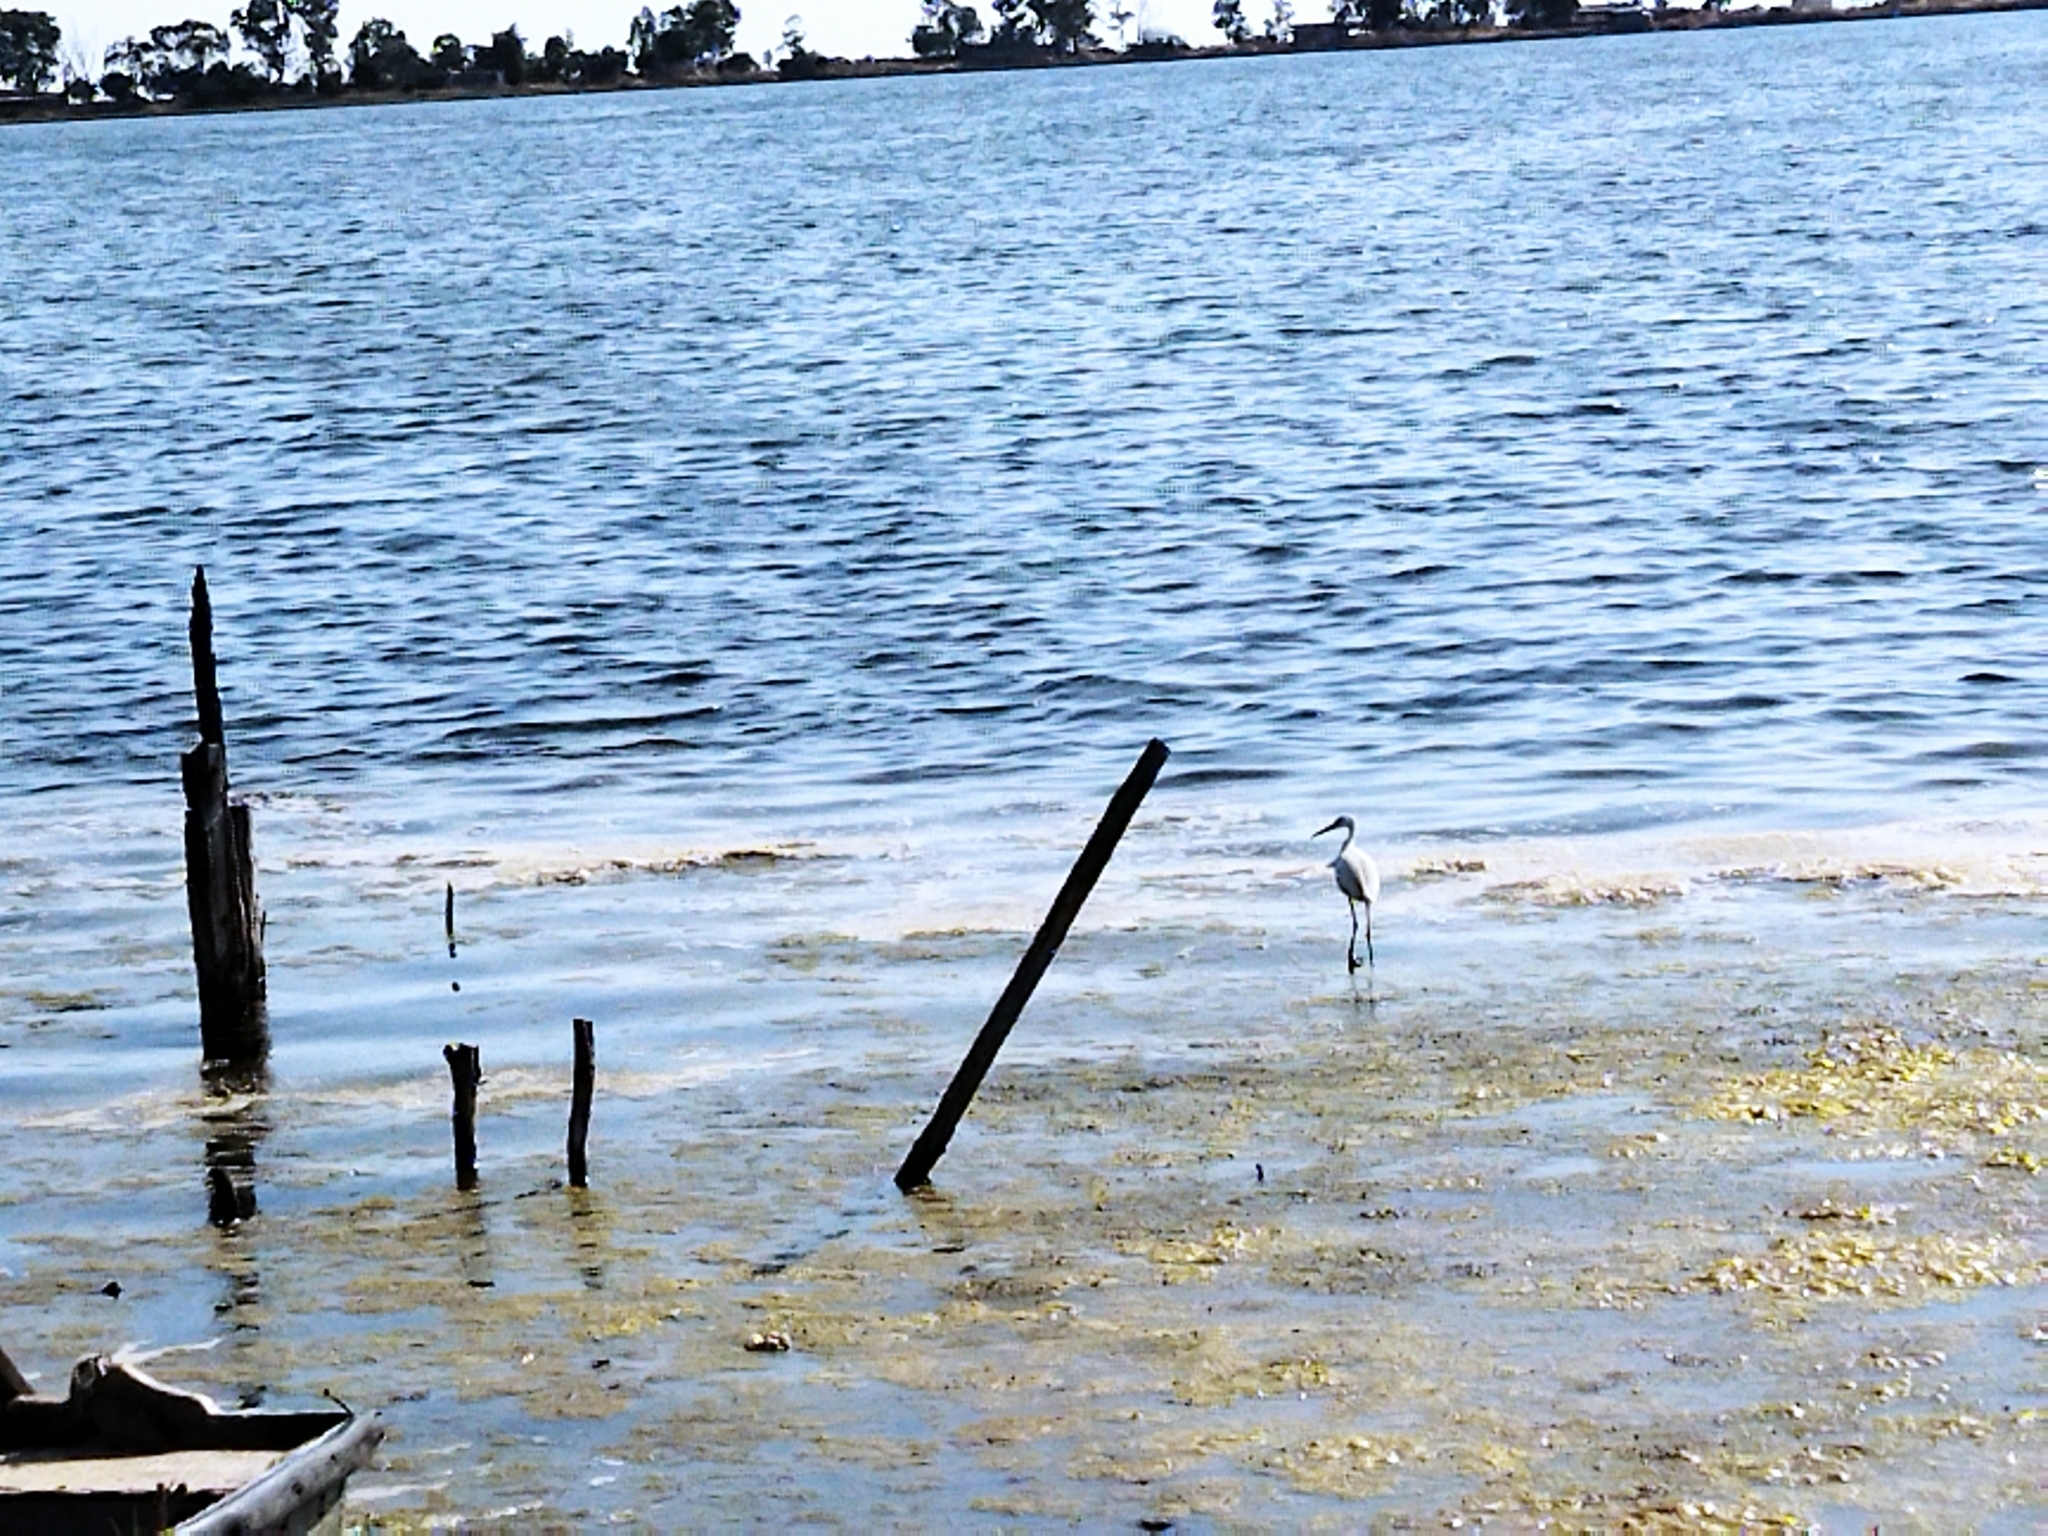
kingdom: Animalia
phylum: Chordata
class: Aves
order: Pelecaniformes
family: Ardeidae
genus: Egretta
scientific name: Egretta garzetta
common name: Little egret
